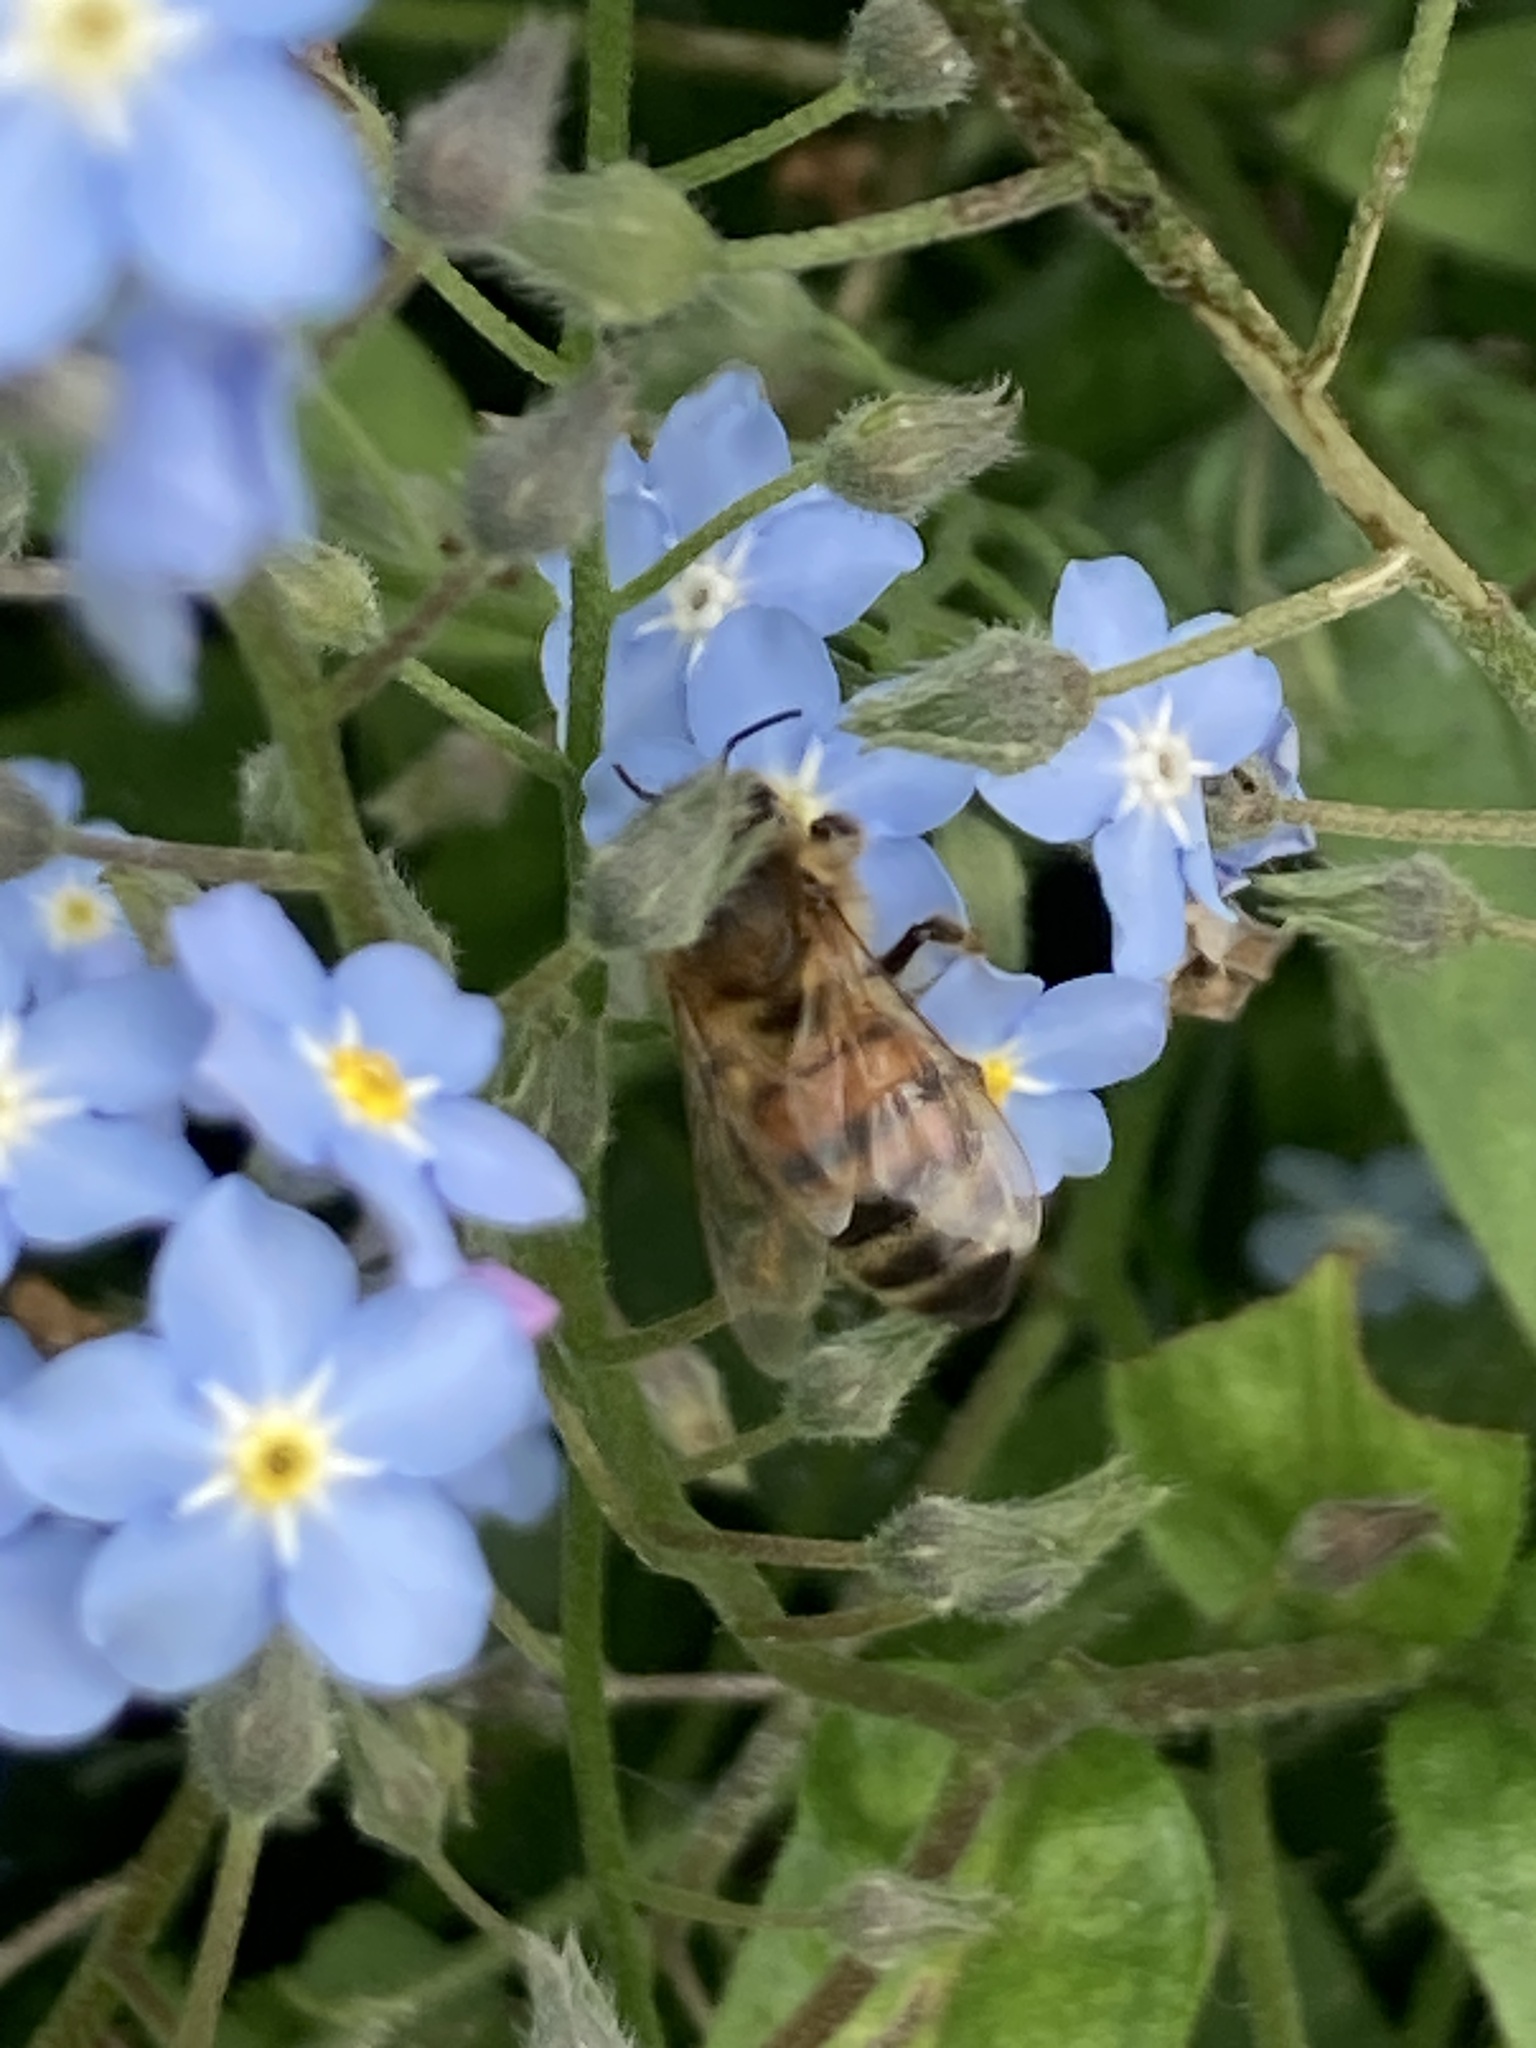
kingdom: Animalia
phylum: Arthropoda
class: Insecta
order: Hymenoptera
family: Apidae
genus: Apis
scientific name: Apis mellifera
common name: Honey bee
